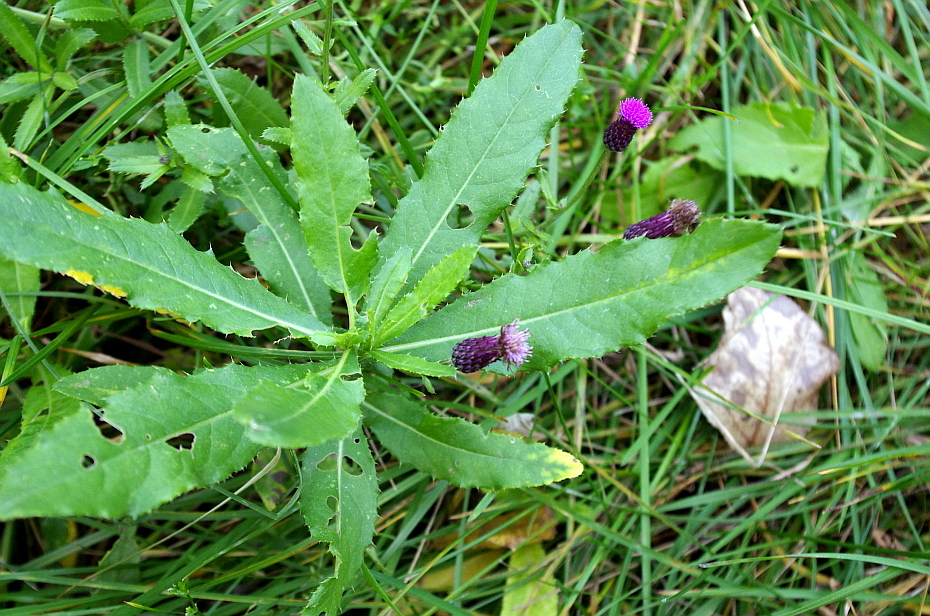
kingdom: Plantae
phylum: Tracheophyta
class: Magnoliopsida
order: Asterales
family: Asteraceae
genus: Cirsium
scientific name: Cirsium arvense
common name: Creeping thistle
